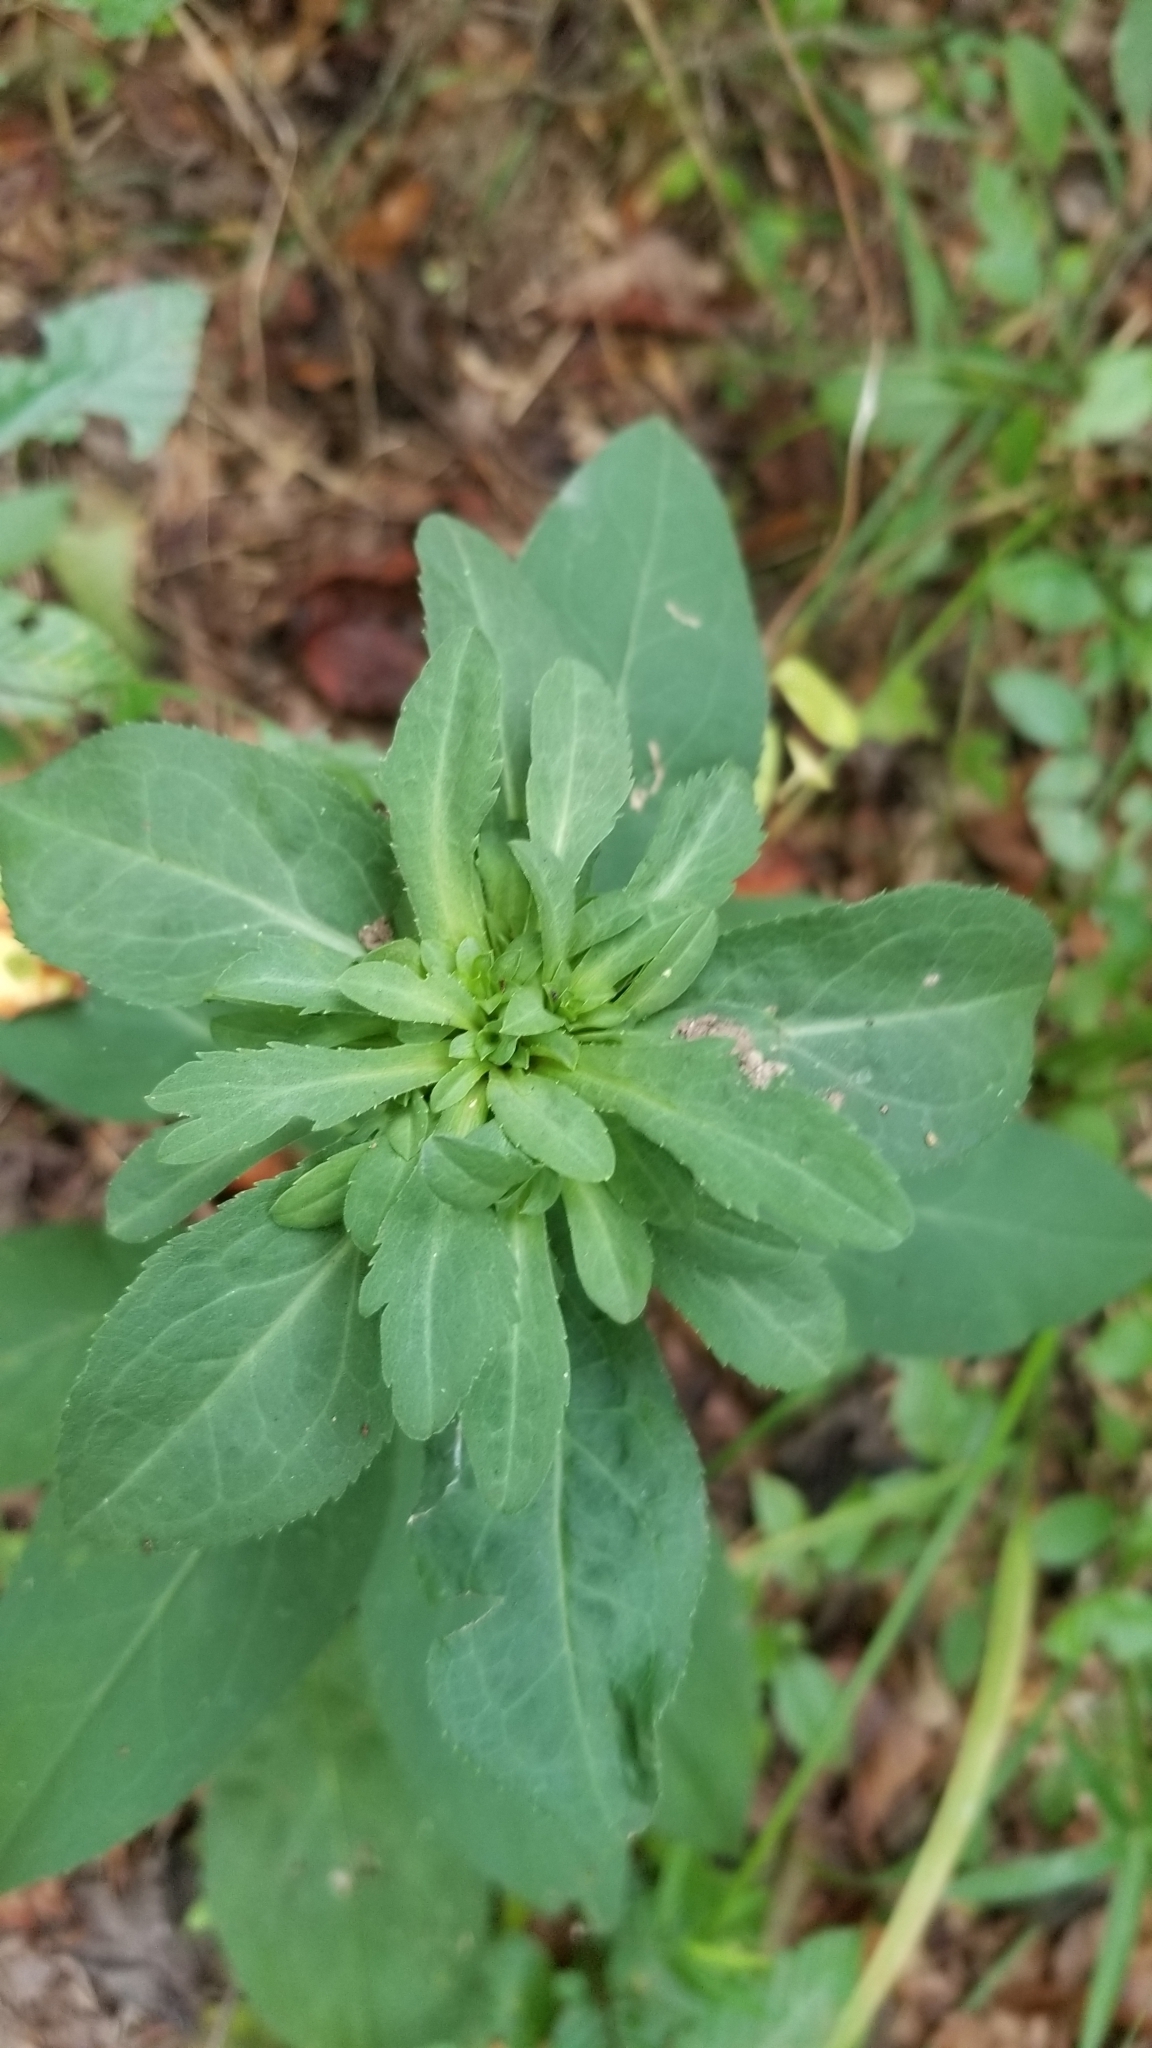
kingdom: Animalia
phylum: Arthropoda
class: Insecta
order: Diptera
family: Cecidomyiidae
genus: Asphondylia
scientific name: Asphondylia pumila
